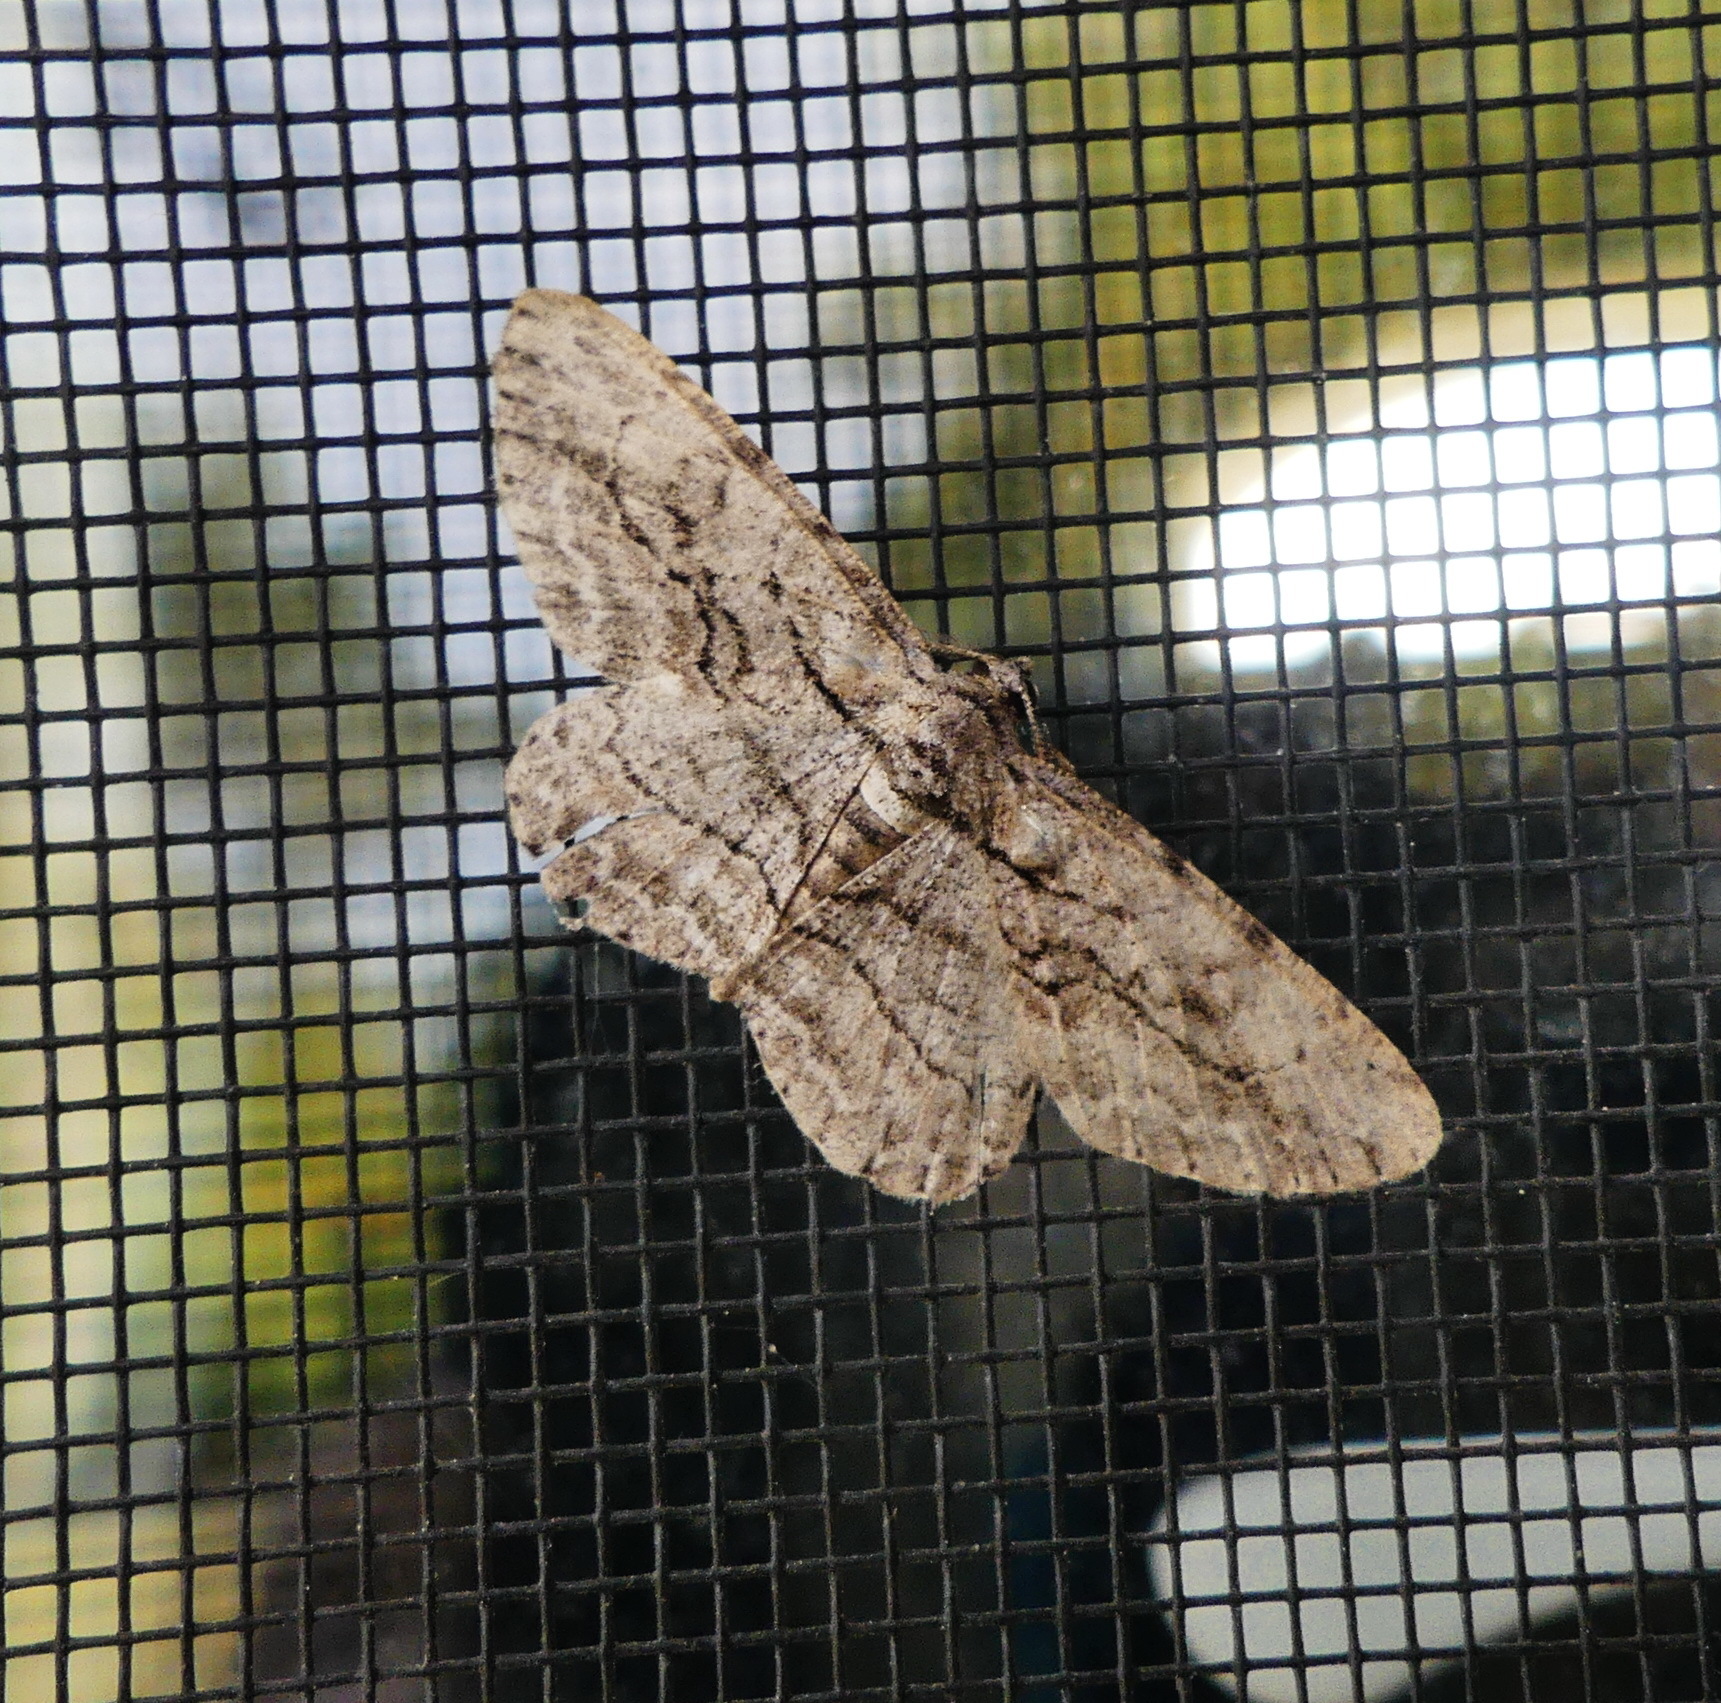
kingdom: Animalia
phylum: Arthropoda
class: Insecta
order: Lepidoptera
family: Geometridae
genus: Anavitrinella
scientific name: Anavitrinella pampinaria
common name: Common gray
